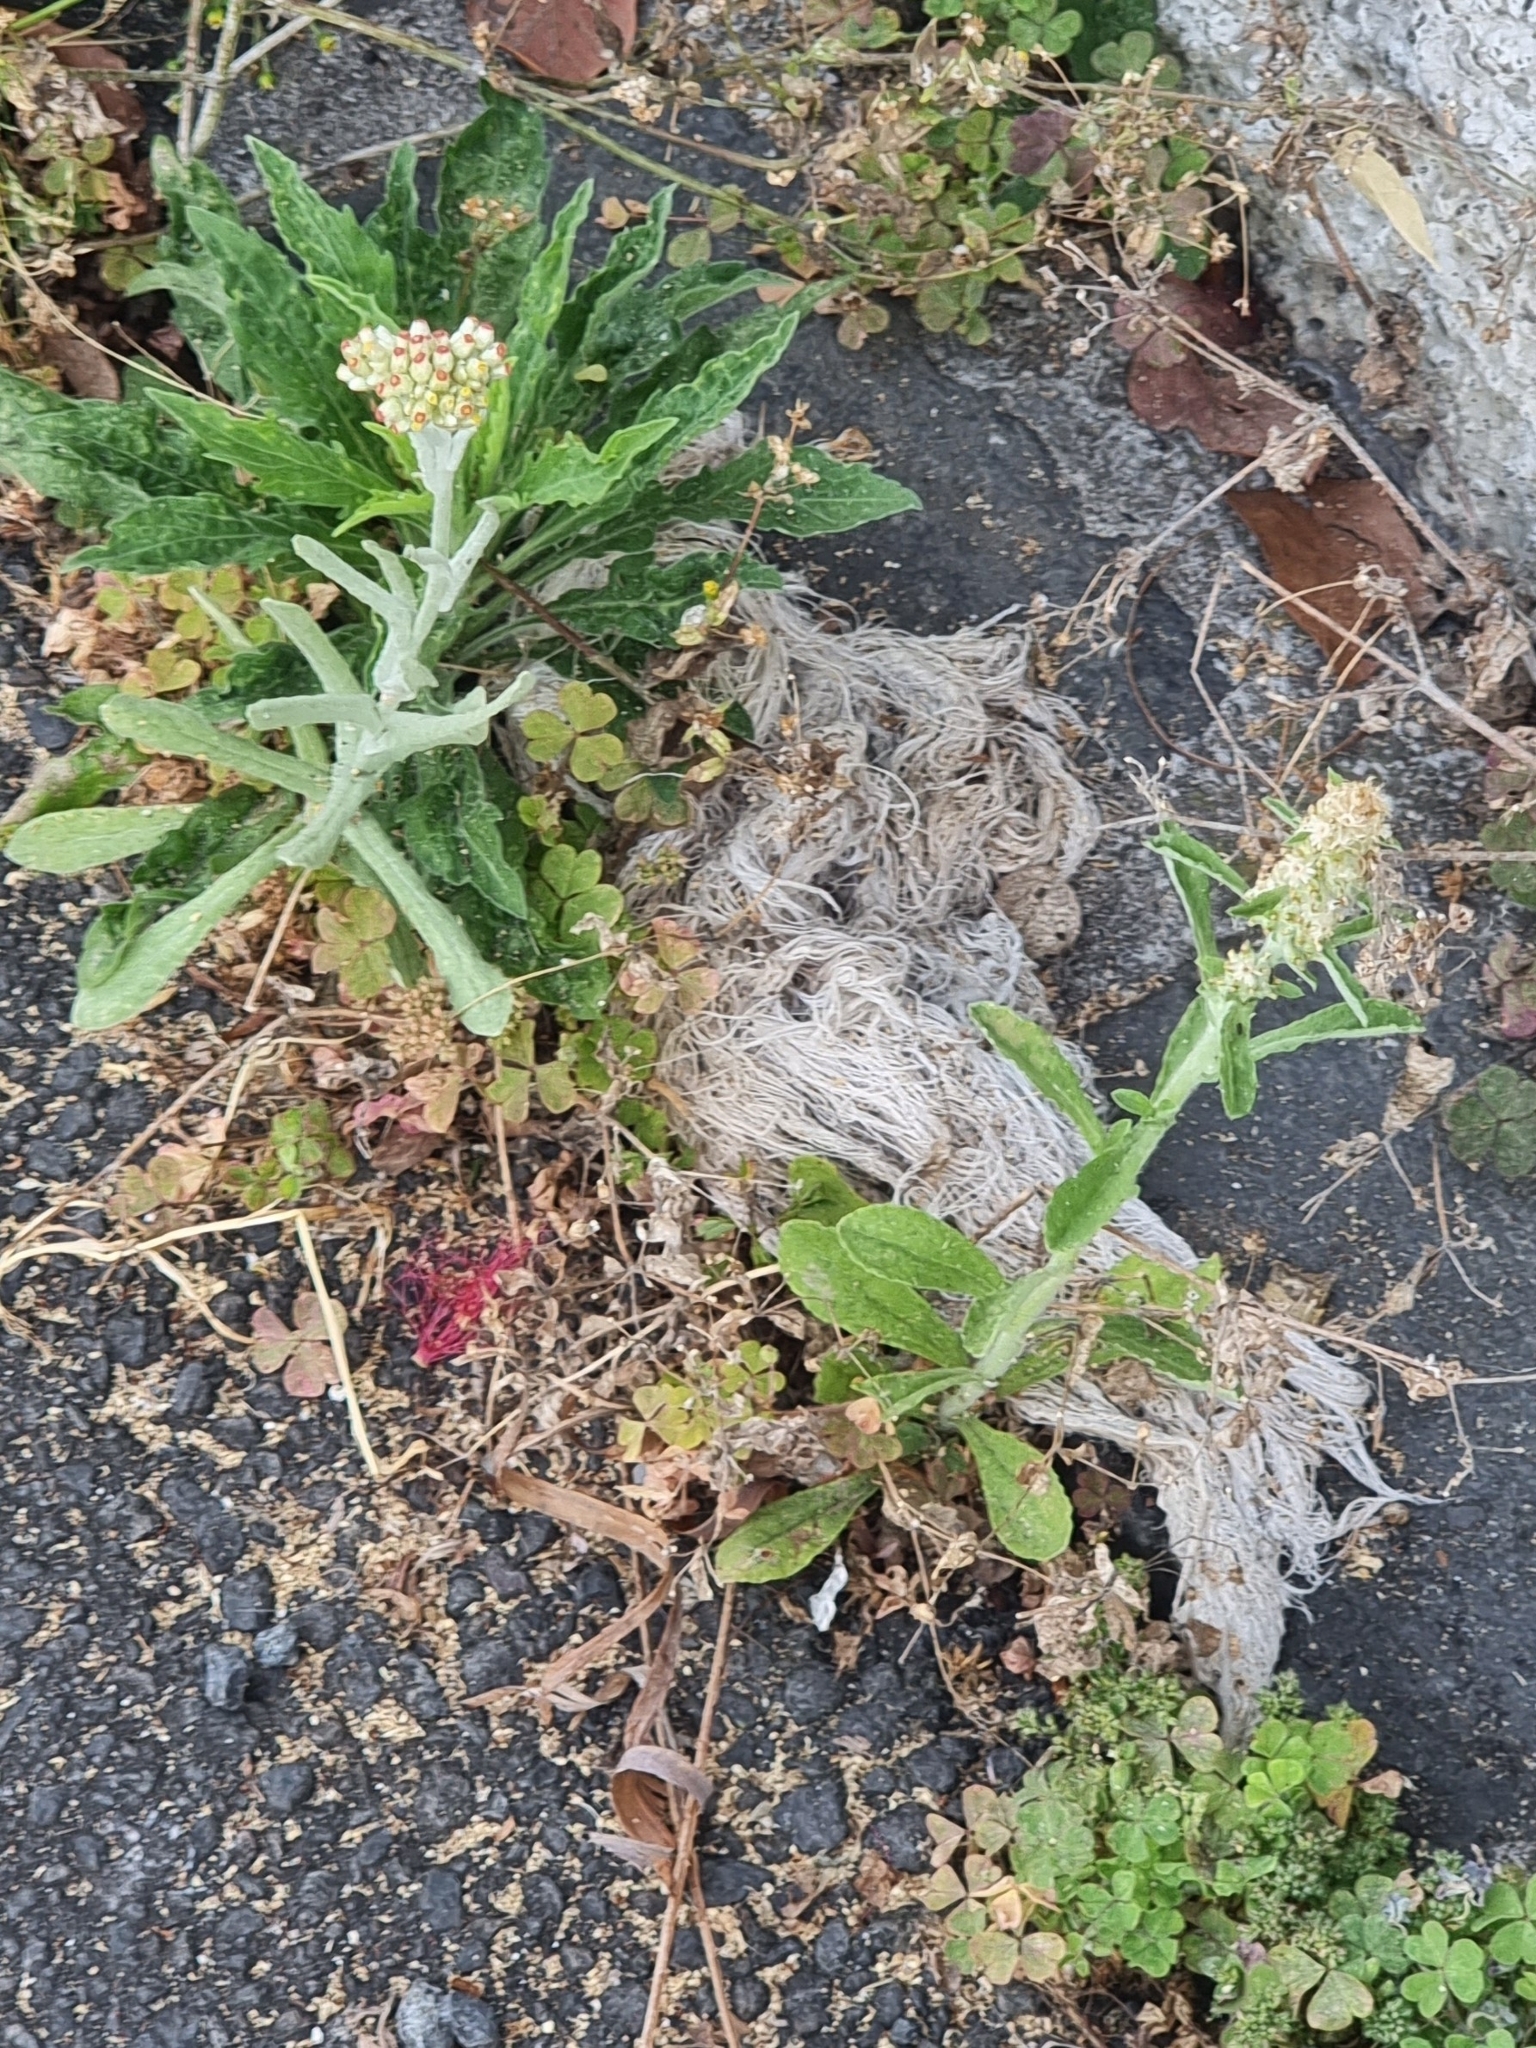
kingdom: Plantae
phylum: Tracheophyta
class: Magnoliopsida
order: Asterales
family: Asteraceae
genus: Helichrysum
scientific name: Helichrysum luteoalbum
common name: Daisy
